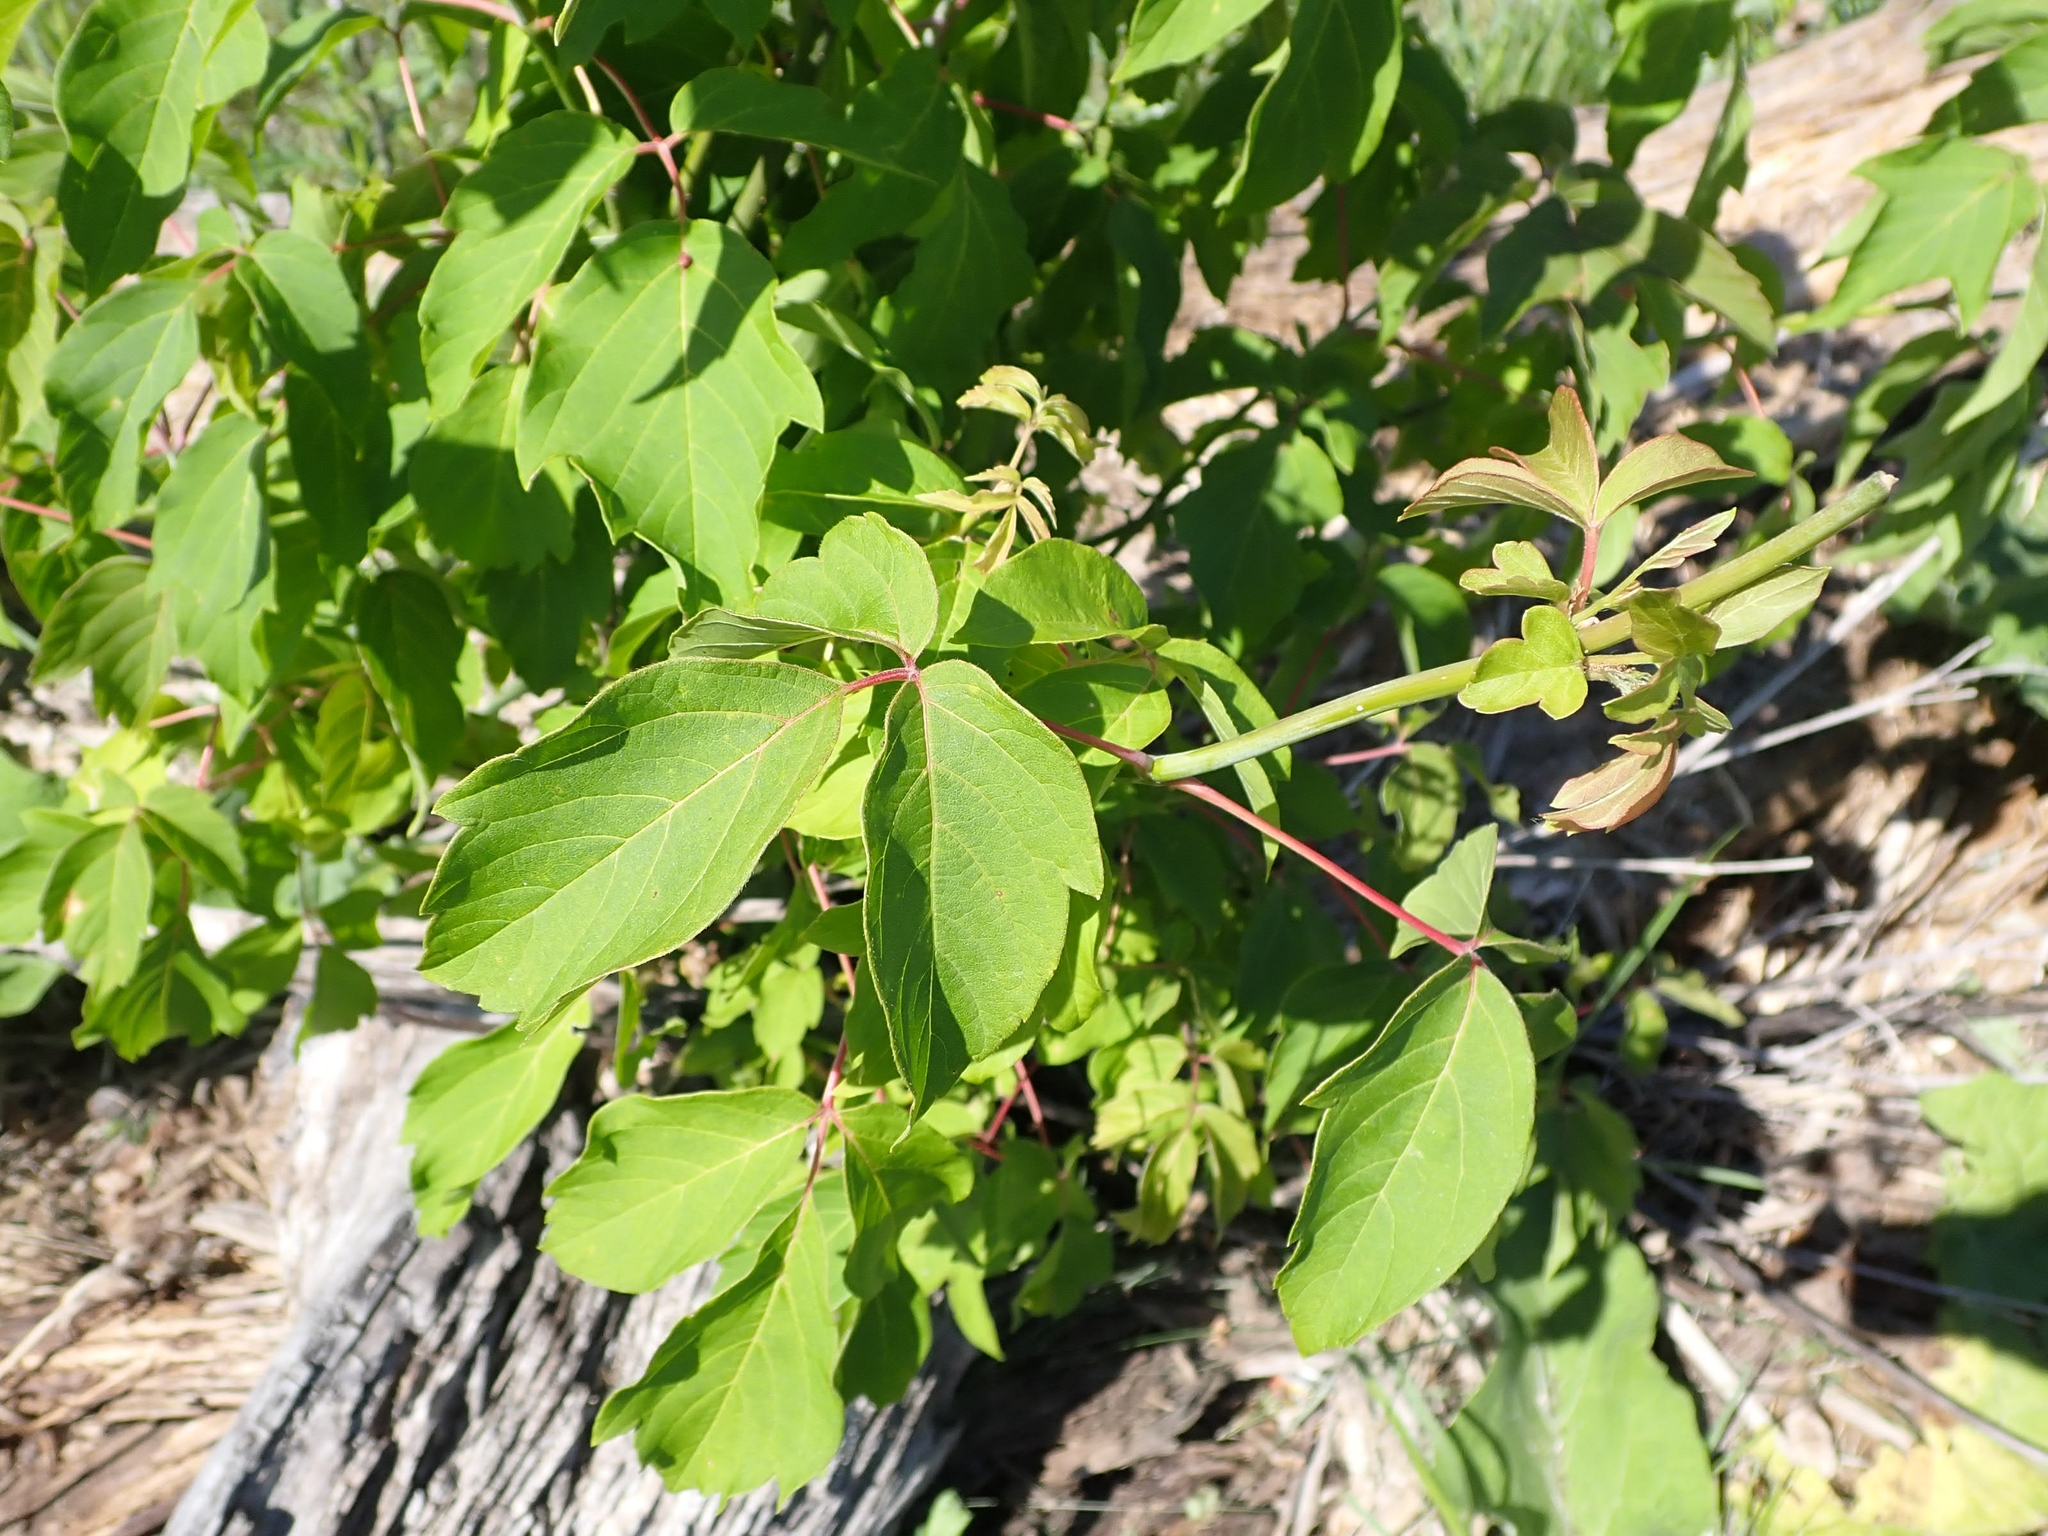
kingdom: Plantae
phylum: Tracheophyta
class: Magnoliopsida
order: Sapindales
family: Sapindaceae
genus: Acer
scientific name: Acer negundo
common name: Ashleaf maple
